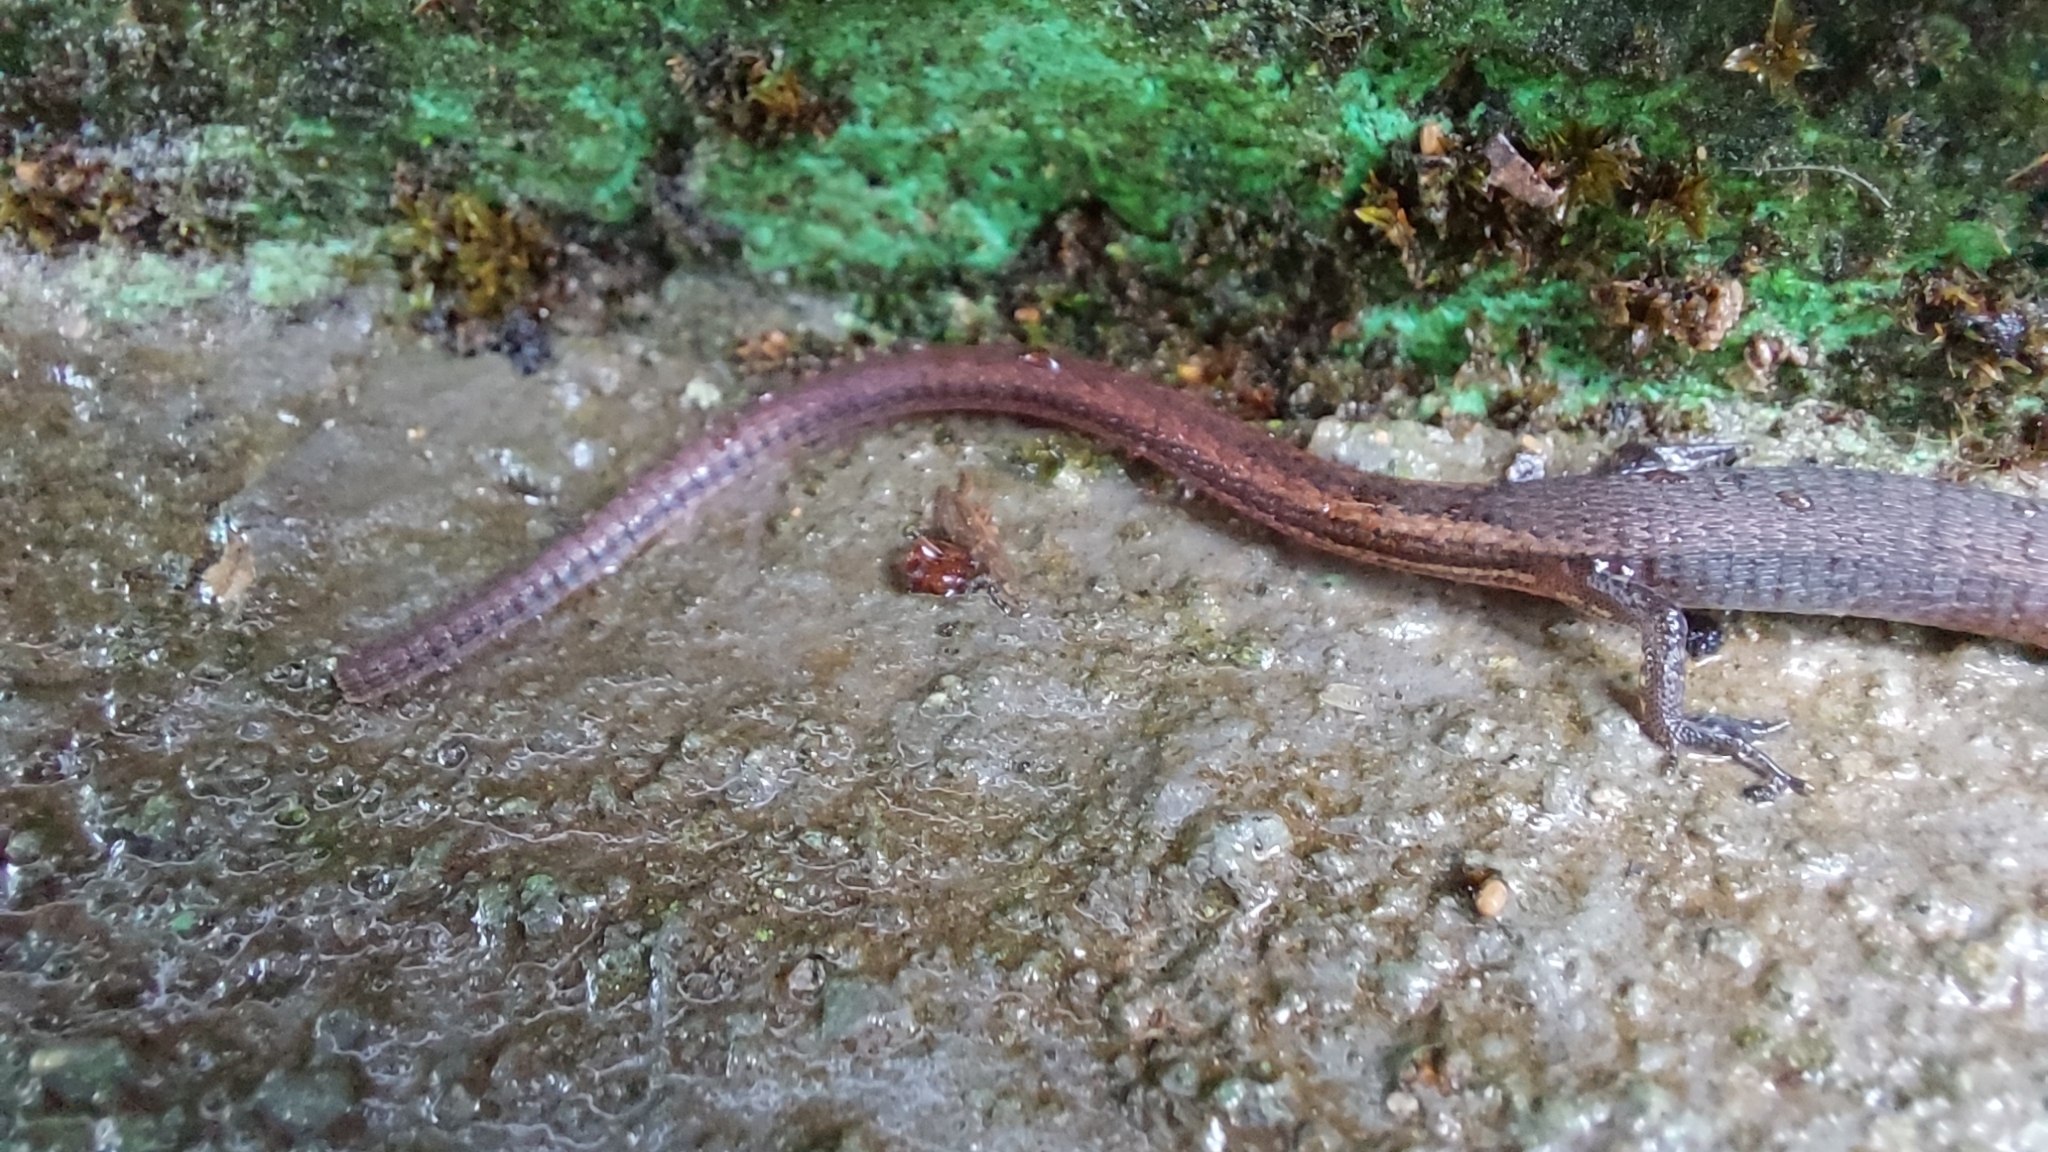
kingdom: Animalia
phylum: Chordata
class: Squamata
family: Gymnophthalmidae
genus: Ecpleopus
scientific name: Ecpleopus gaudichaudii
